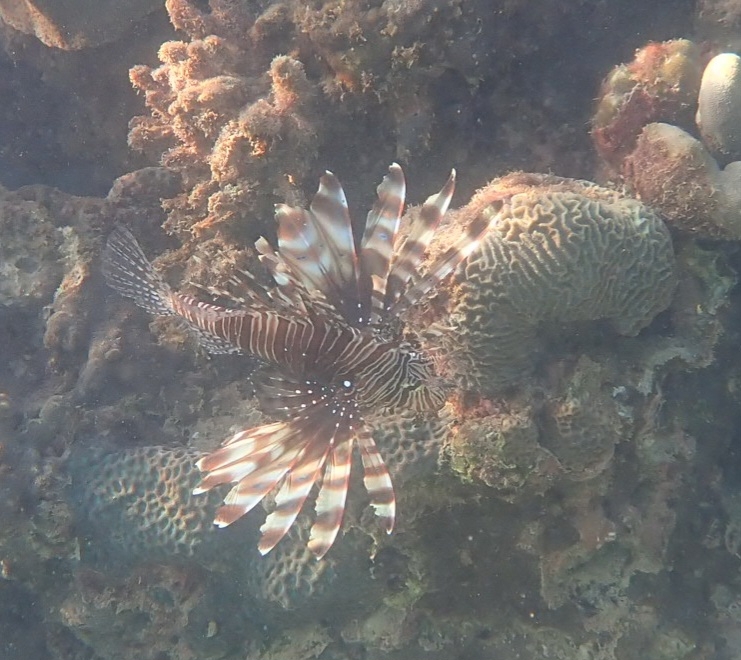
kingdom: Animalia
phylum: Chordata
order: Scorpaeniformes
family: Scorpaenidae
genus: Pterois
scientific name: Pterois miles
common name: Devil firefish
